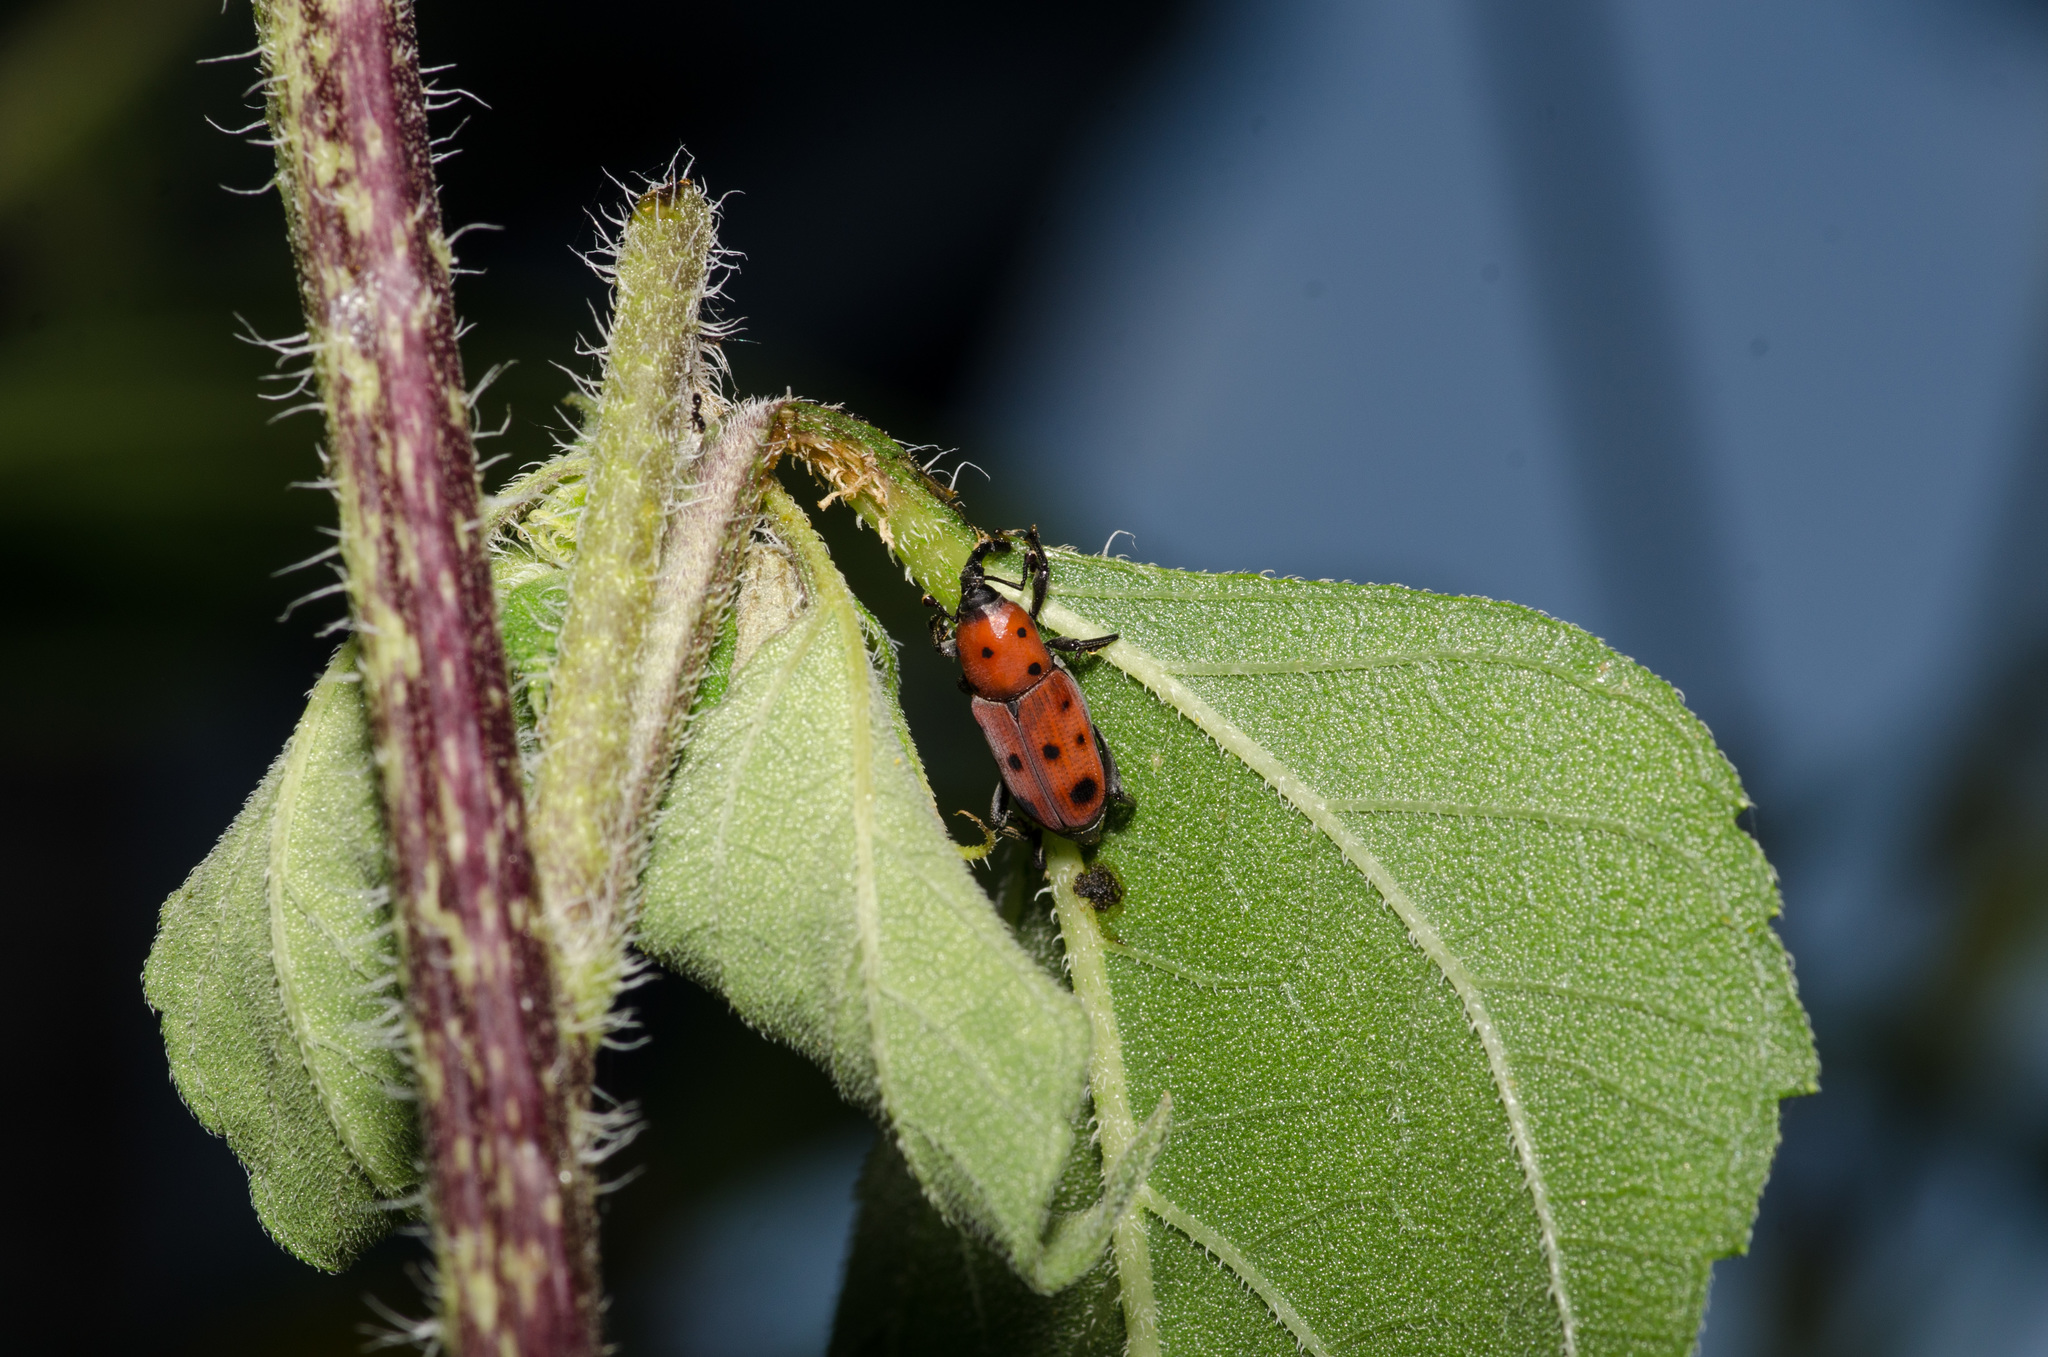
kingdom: Animalia
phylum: Arthropoda
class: Insecta
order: Coleoptera
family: Dryophthoridae
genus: Rhodobaenus
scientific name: Rhodobaenus tredecimpunctatus
